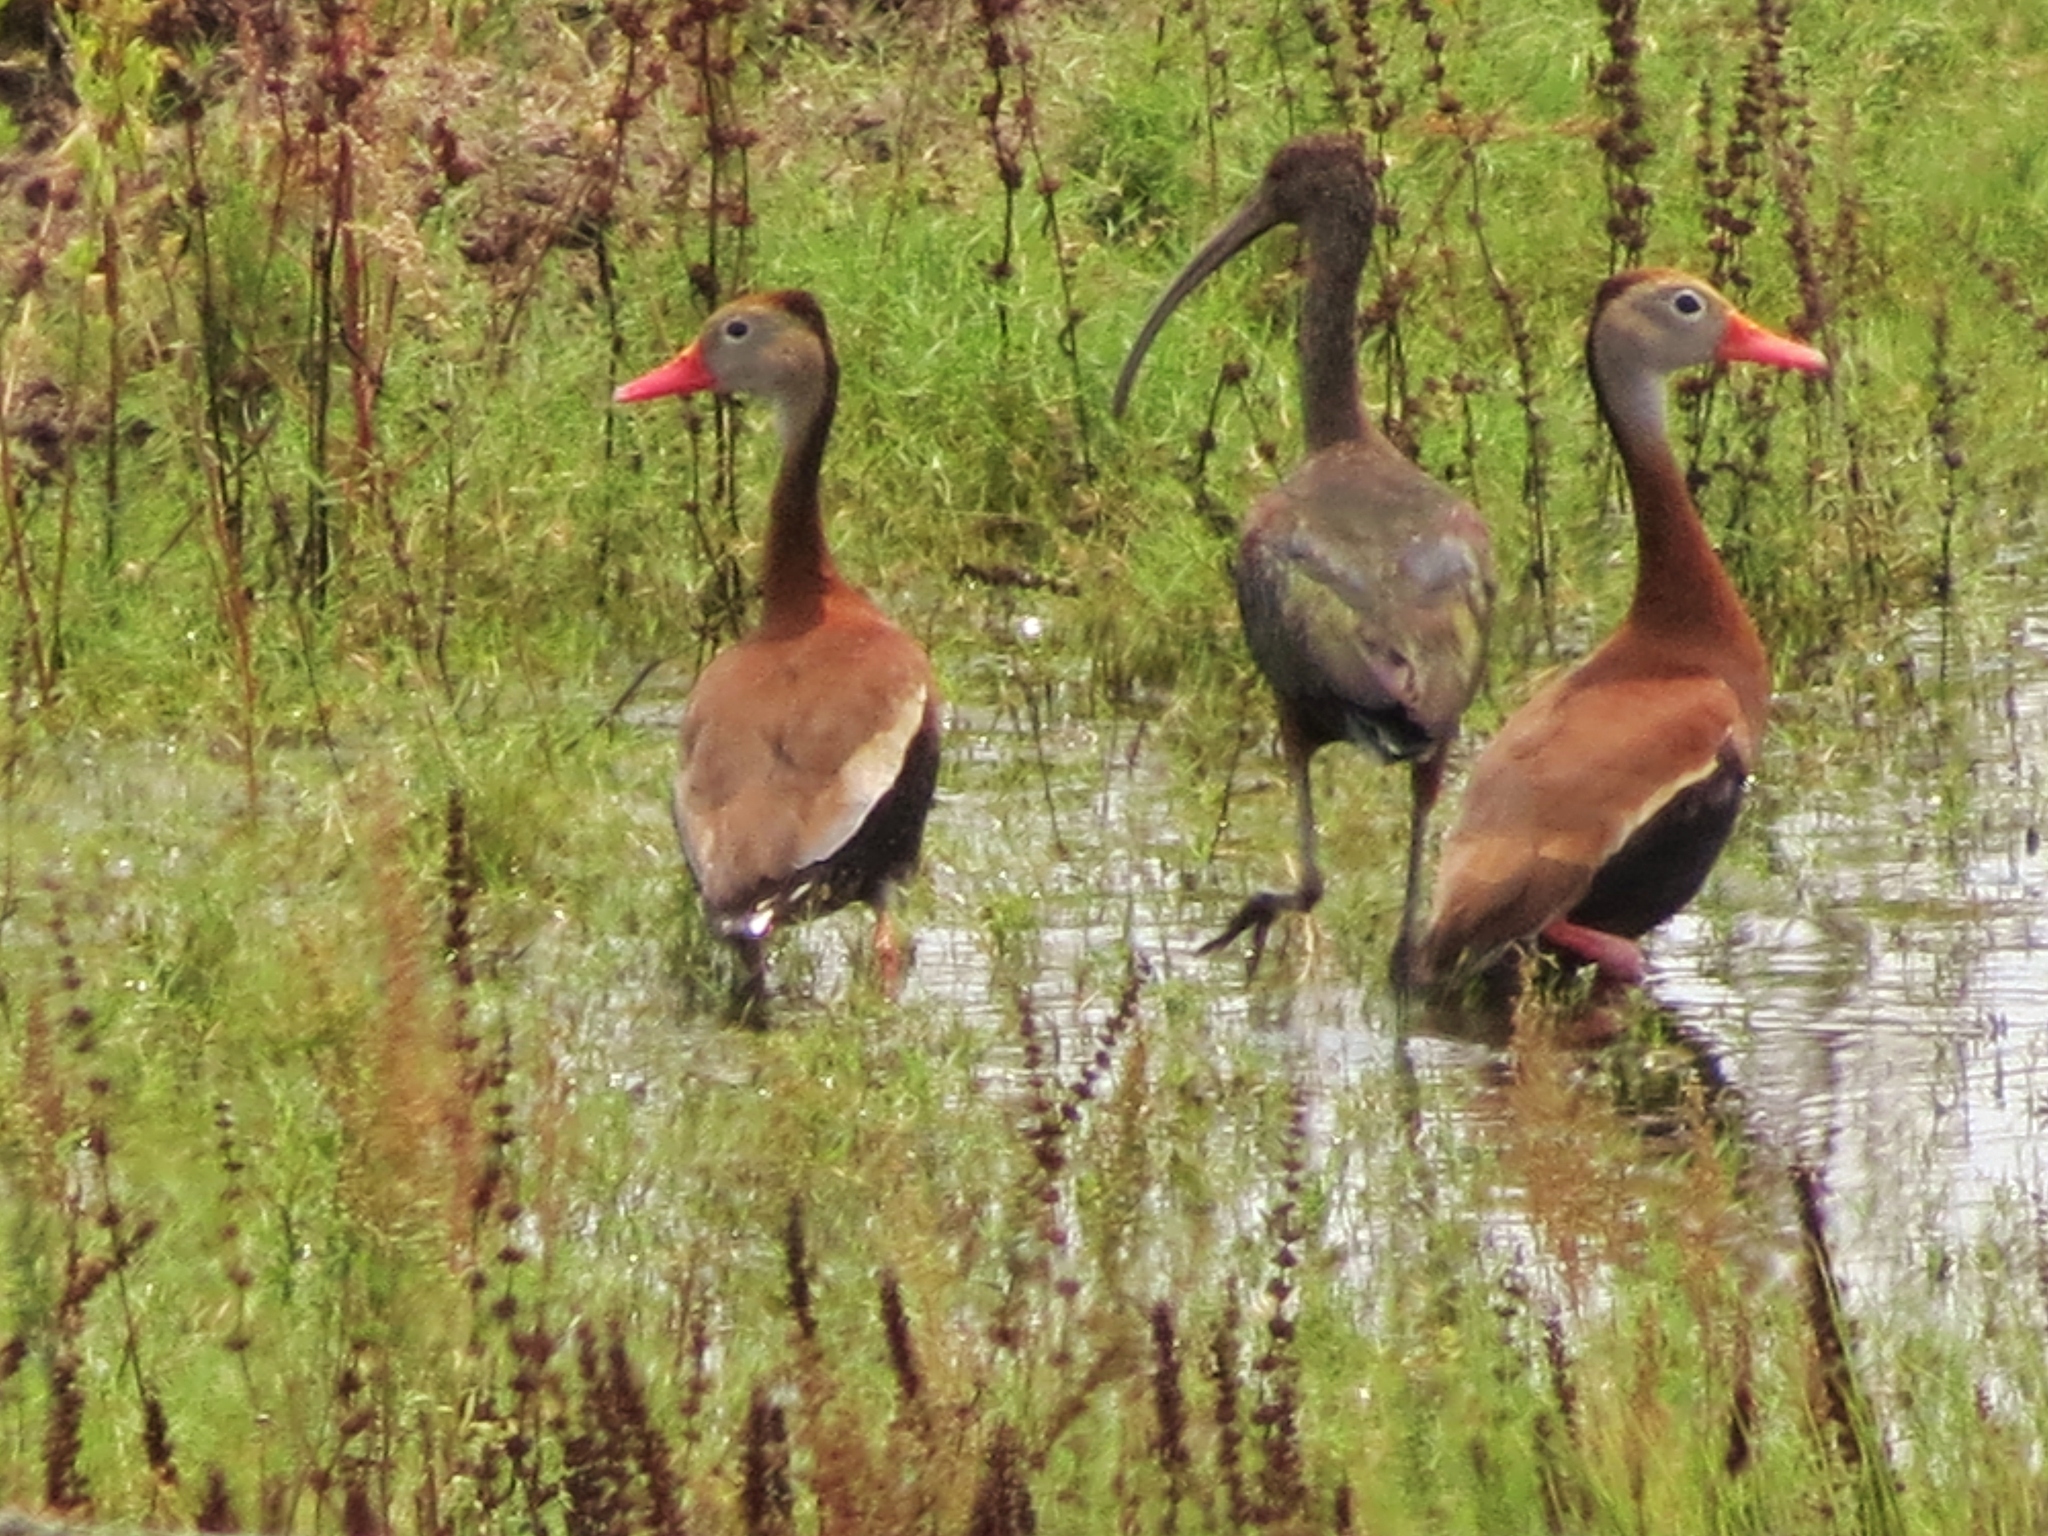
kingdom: Animalia
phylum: Chordata
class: Aves
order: Anseriformes
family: Anatidae
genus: Dendrocygna
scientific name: Dendrocygna autumnalis
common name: Black-bellied whistling duck
